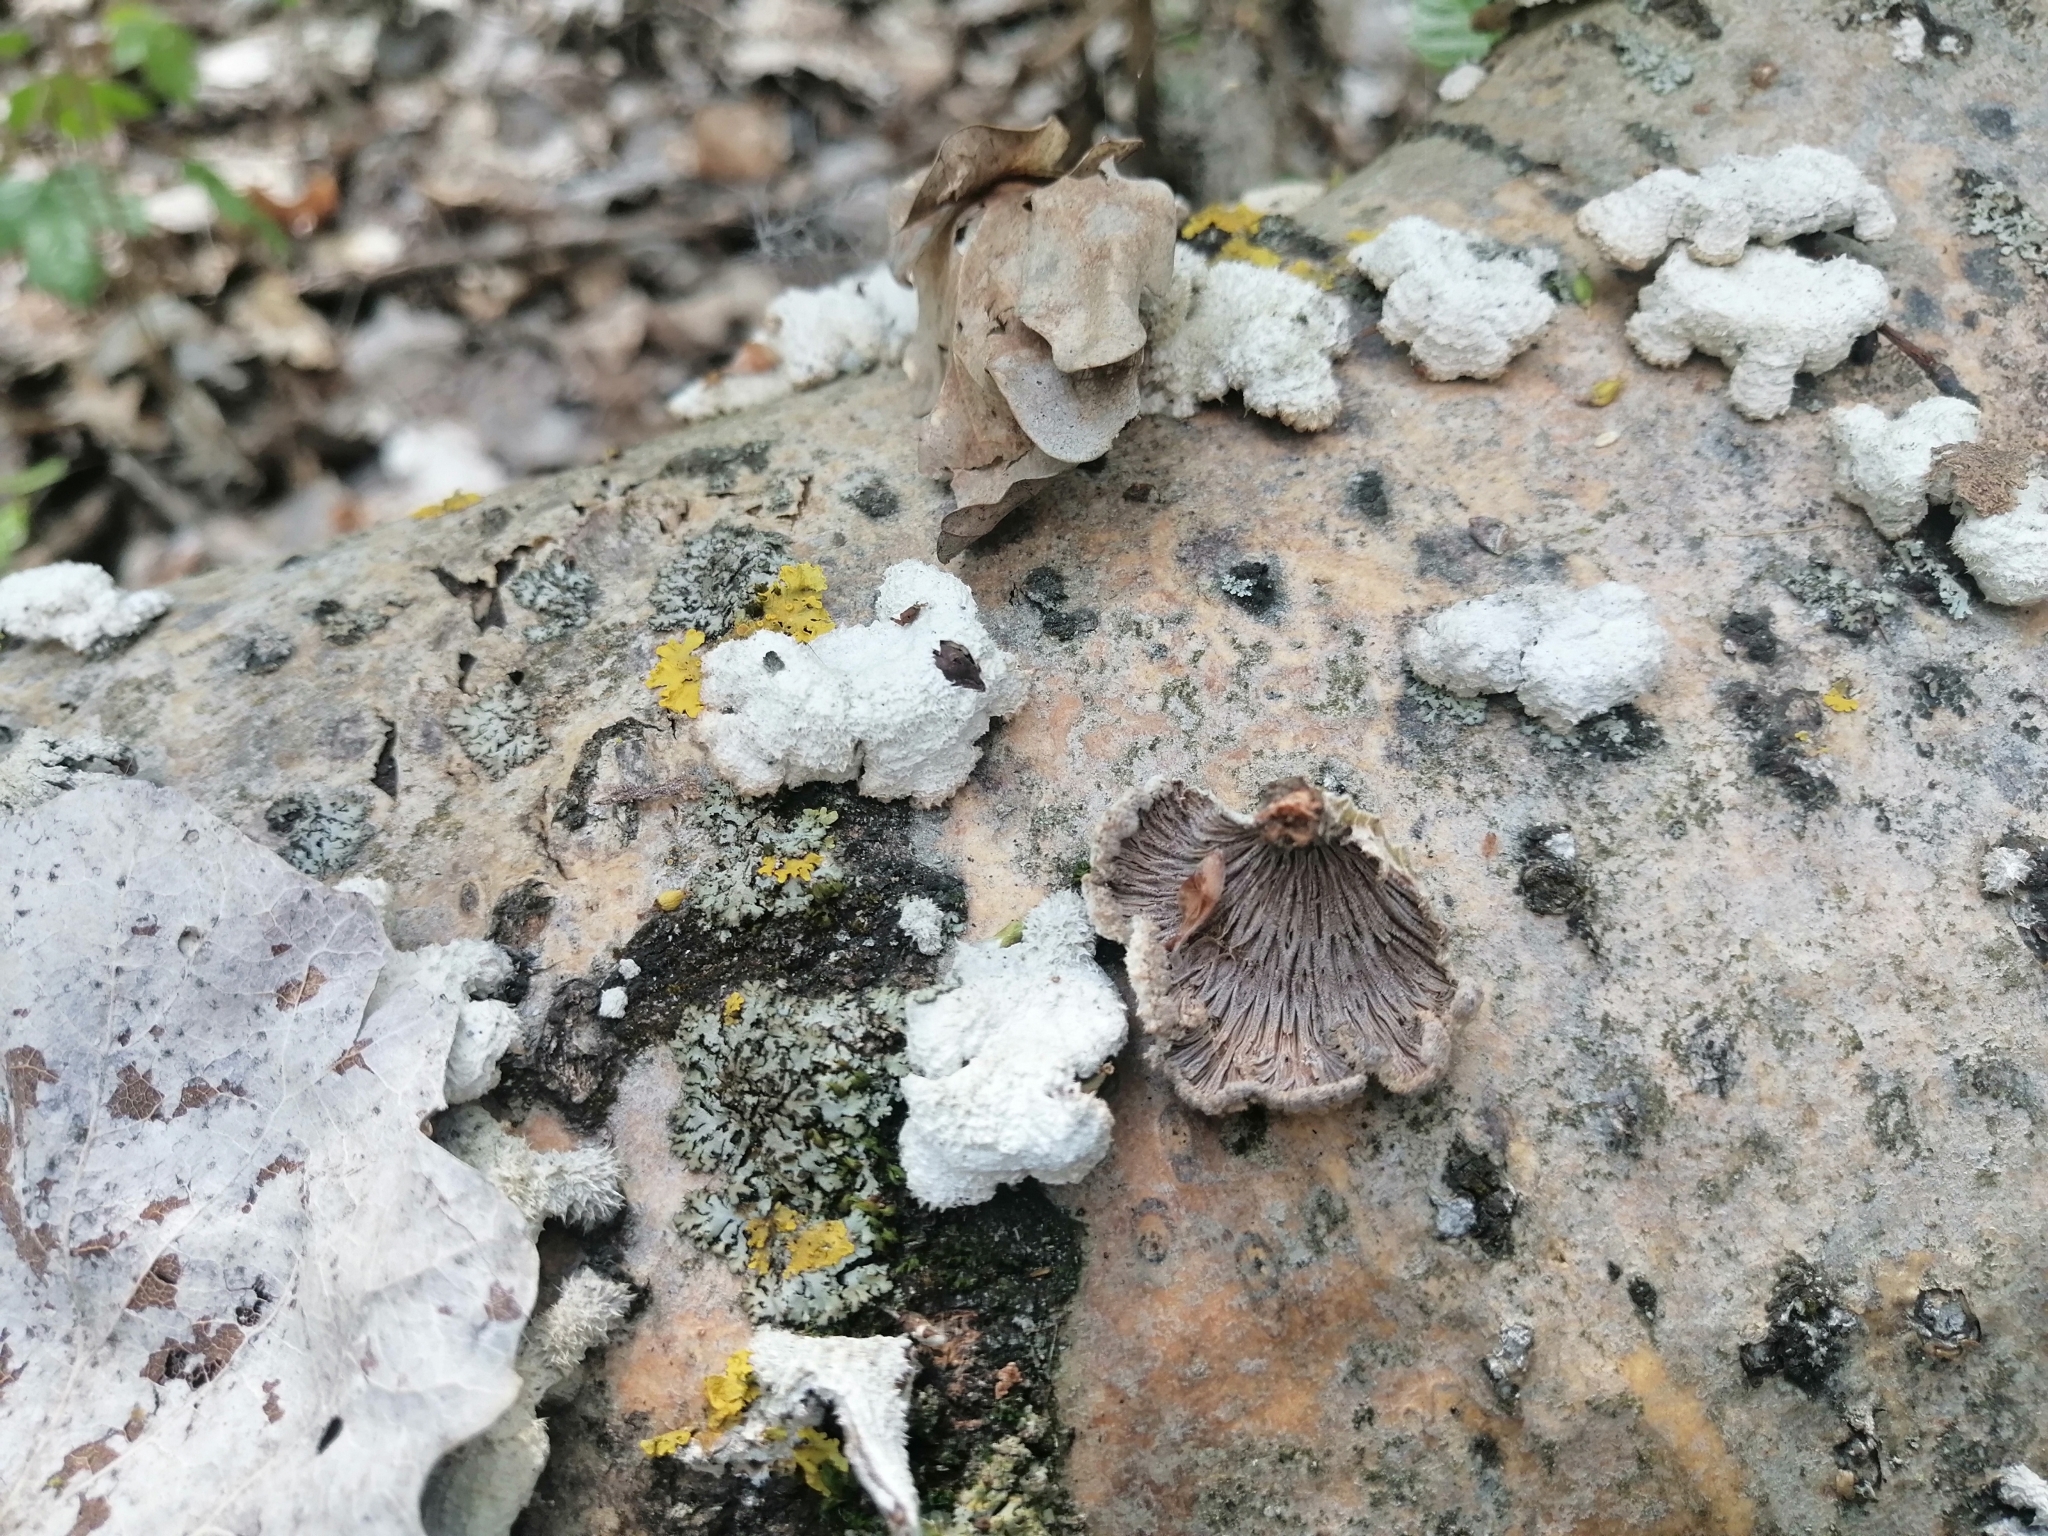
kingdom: Fungi
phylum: Basidiomycota
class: Agaricomycetes
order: Agaricales
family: Schizophyllaceae
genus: Schizophyllum
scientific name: Schizophyllum commune
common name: Common porecrust
